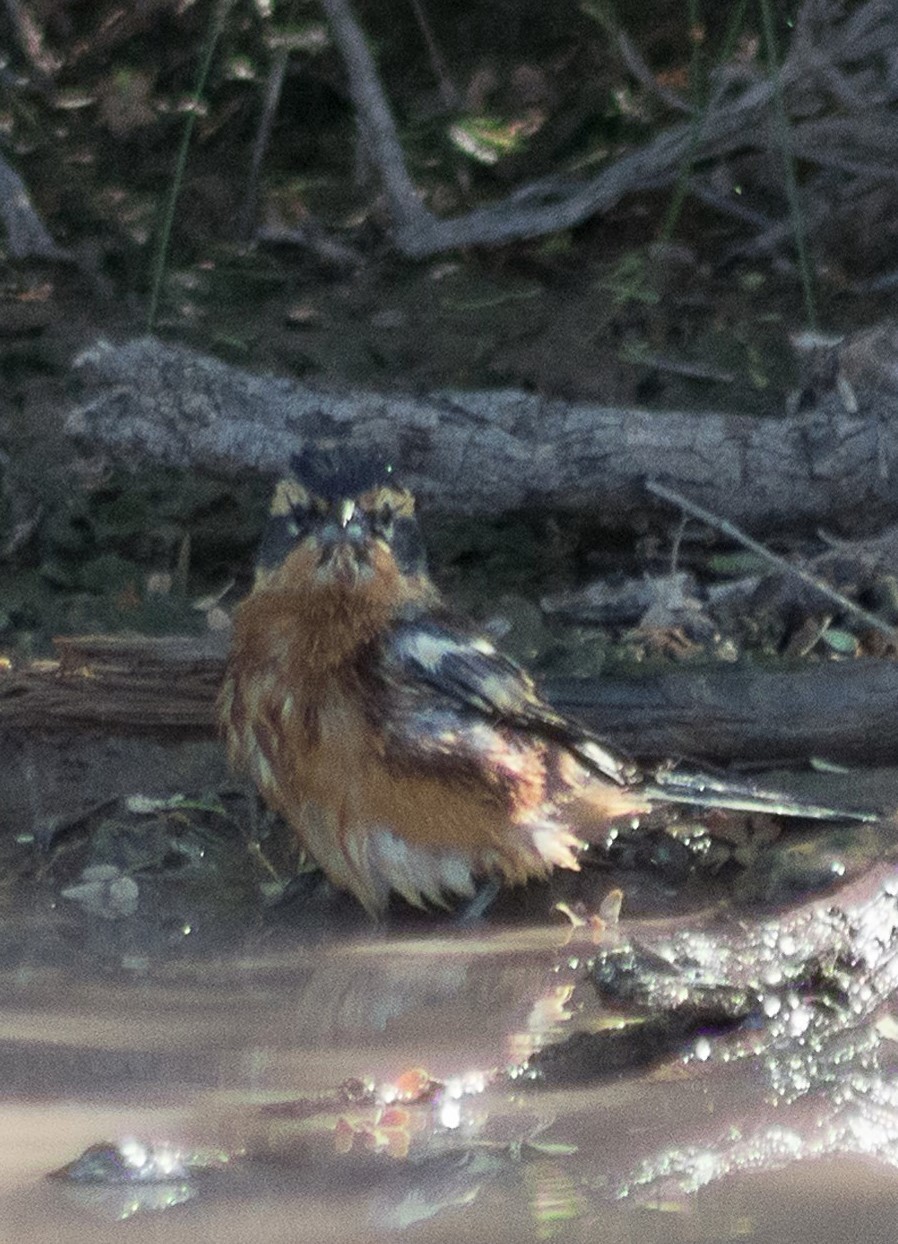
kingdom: Animalia
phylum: Chordata
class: Aves
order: Passeriformes
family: Thraupidae
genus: Poospiza
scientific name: Poospiza ornata
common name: Cinnamon warbling finch
